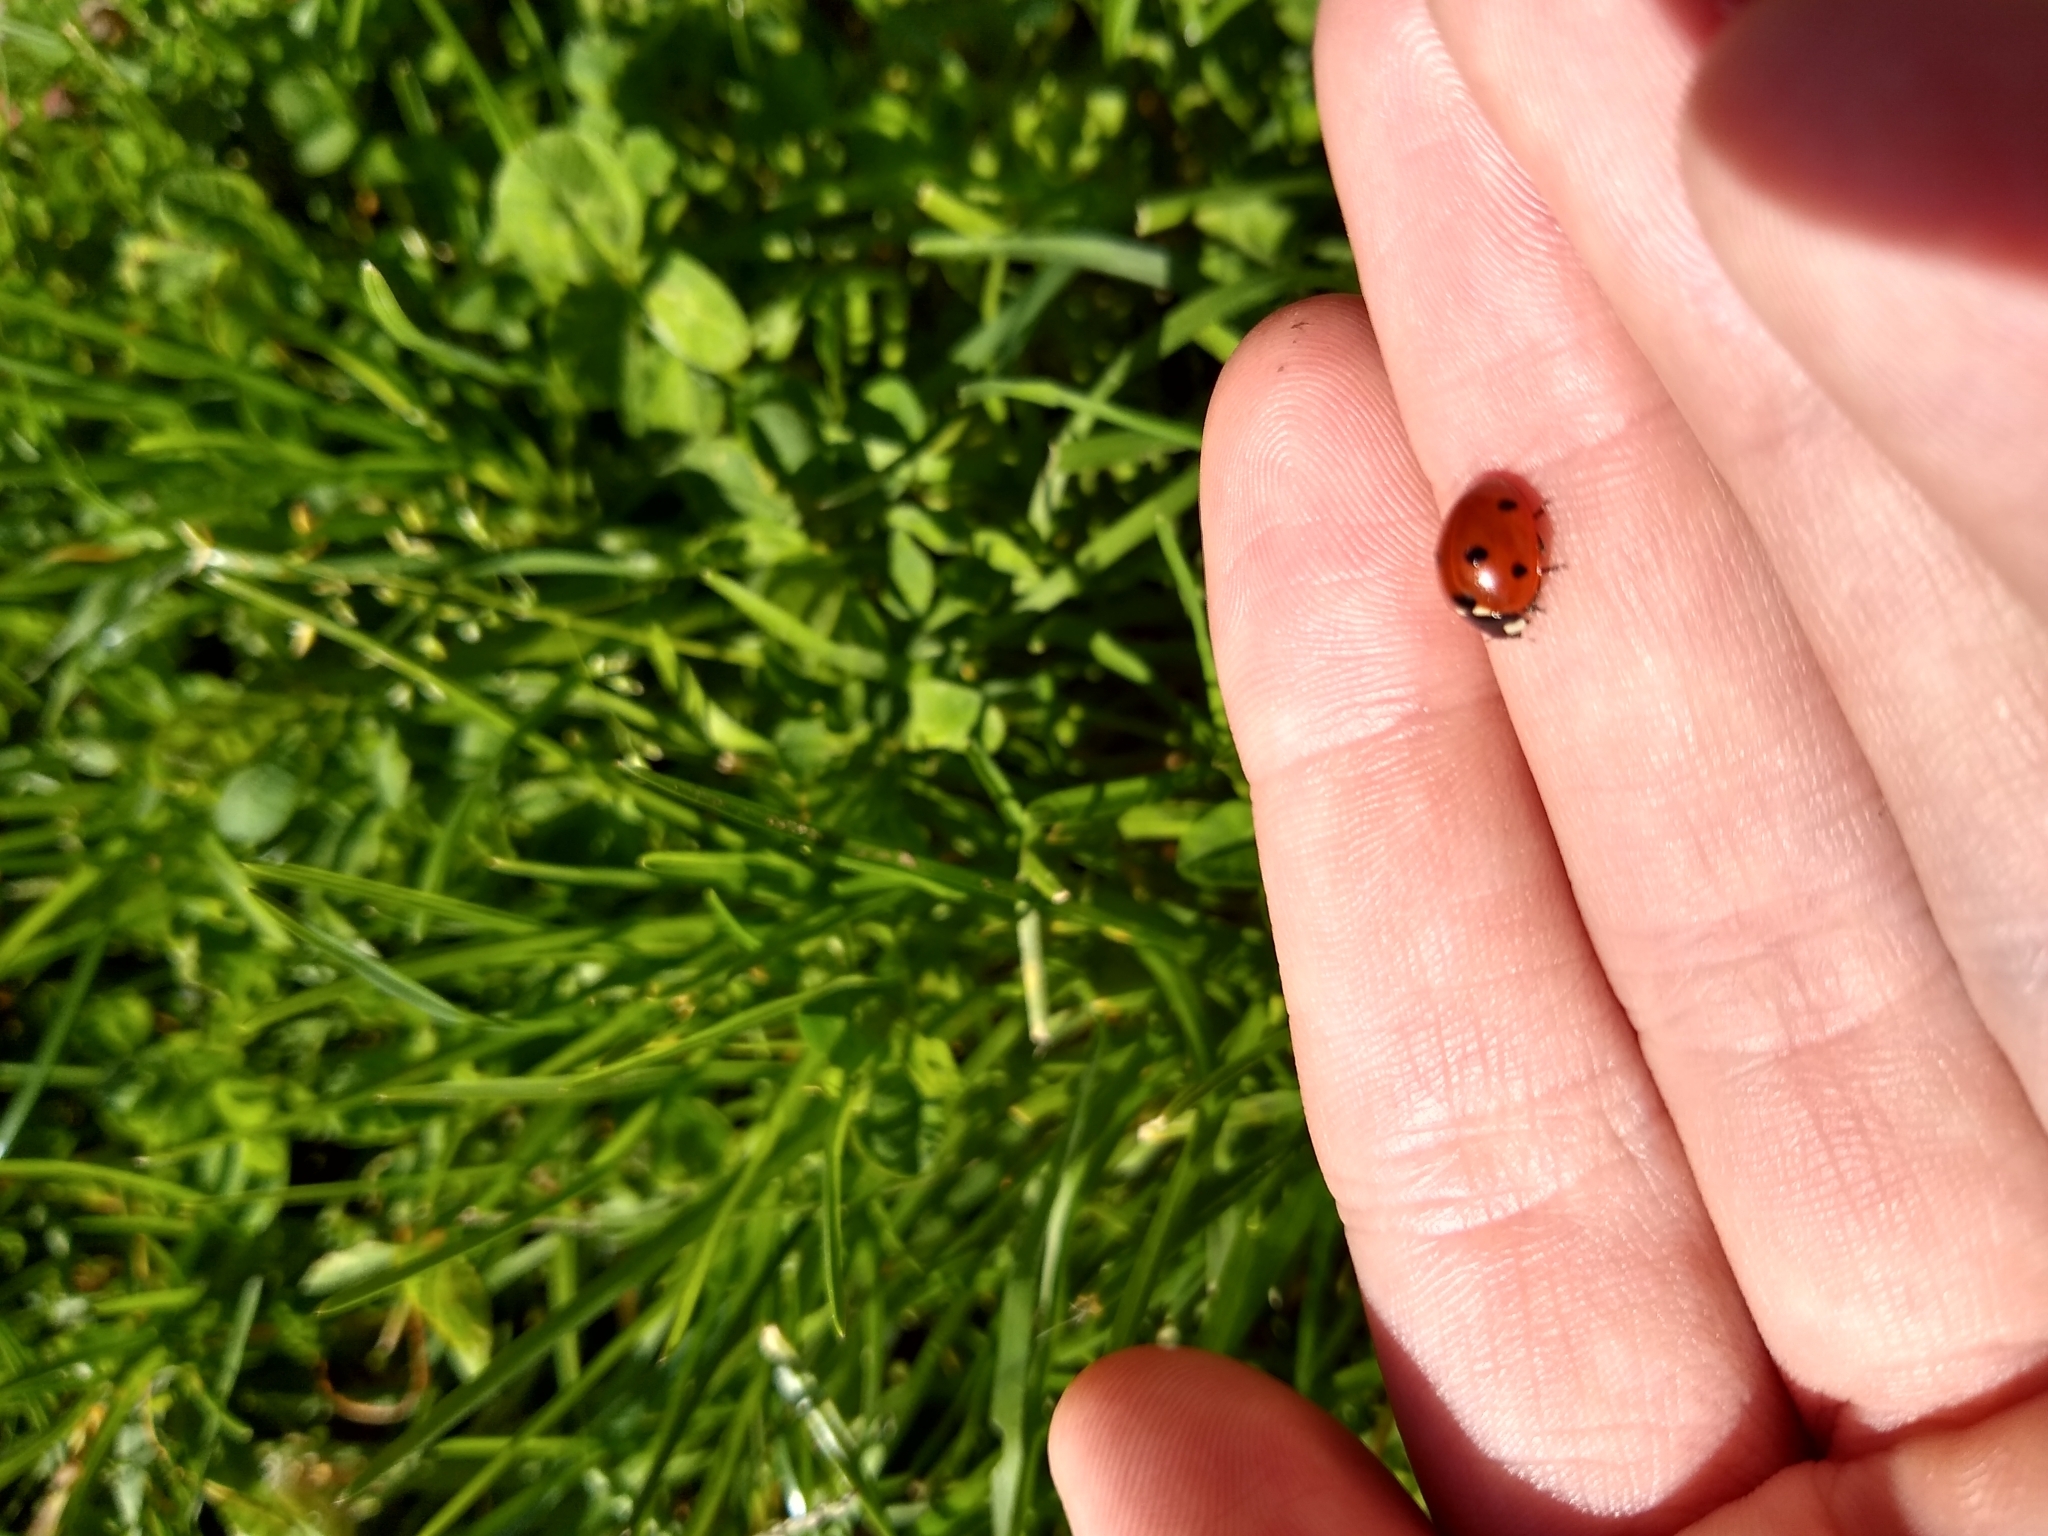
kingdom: Animalia
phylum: Arthropoda
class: Insecta
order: Coleoptera
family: Coccinellidae
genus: Coccinella
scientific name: Coccinella septempunctata
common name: Sevenspotted lady beetle
